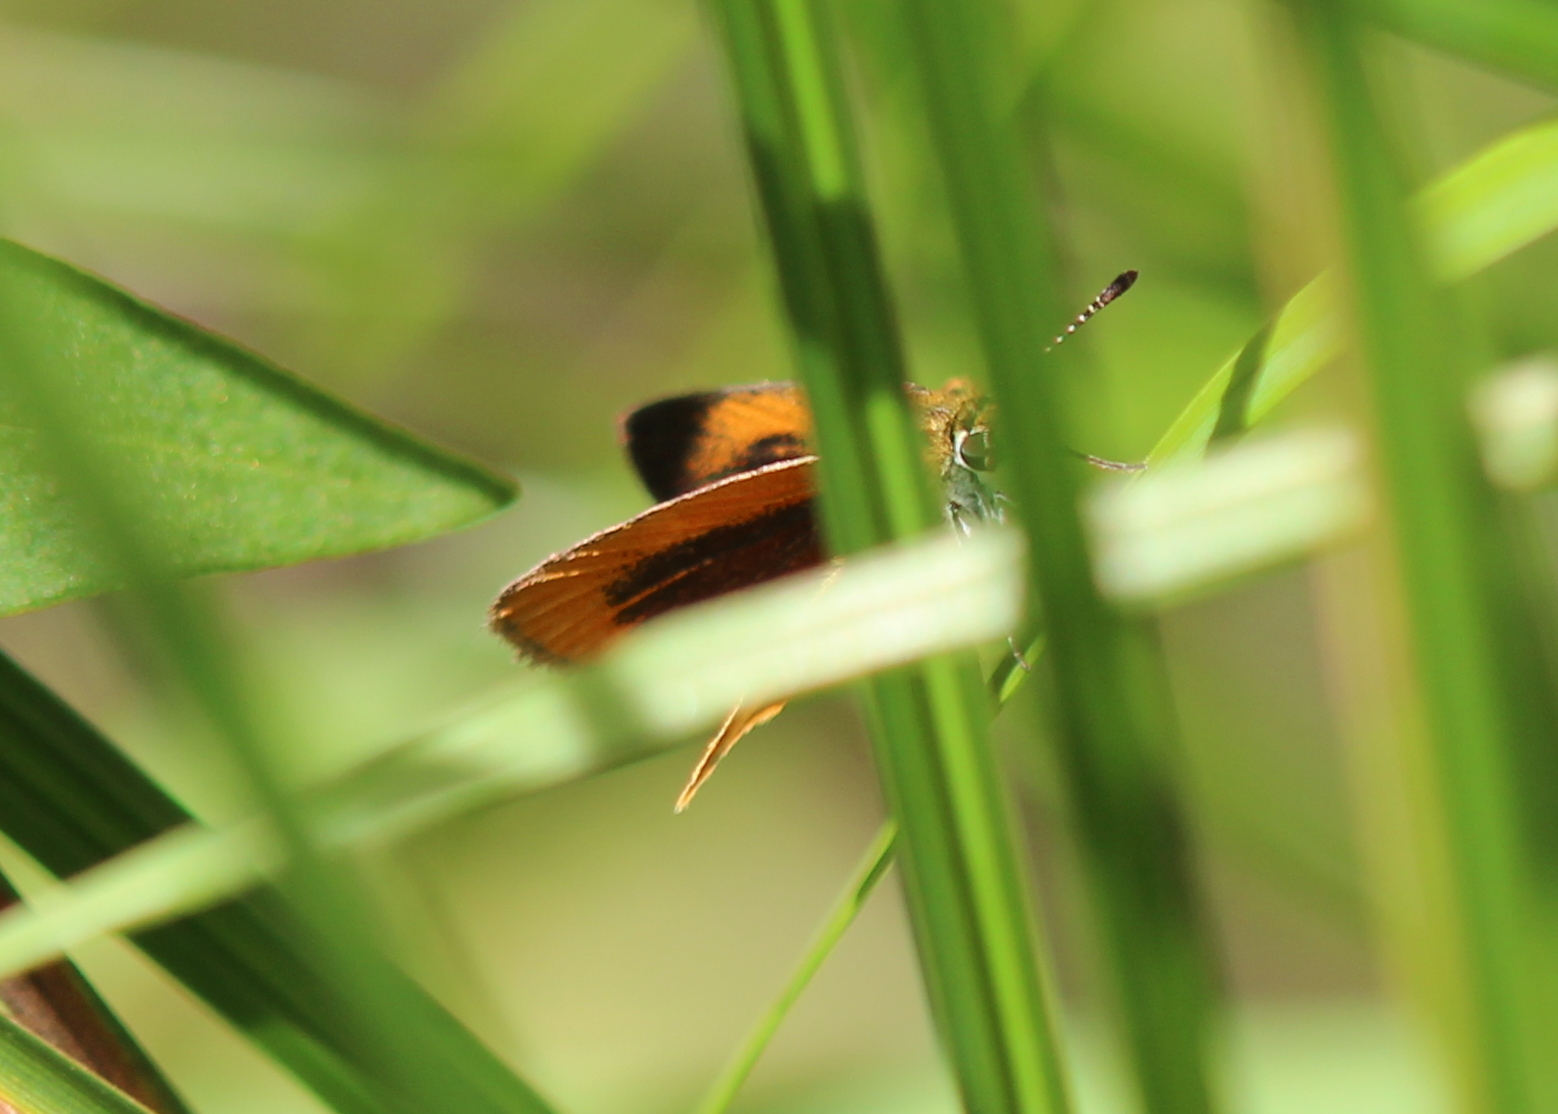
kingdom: Animalia
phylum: Arthropoda
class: Insecta
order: Lepidoptera
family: Hesperiidae
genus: Ancyloxypha
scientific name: Ancyloxypha numitor
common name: Least skipper
